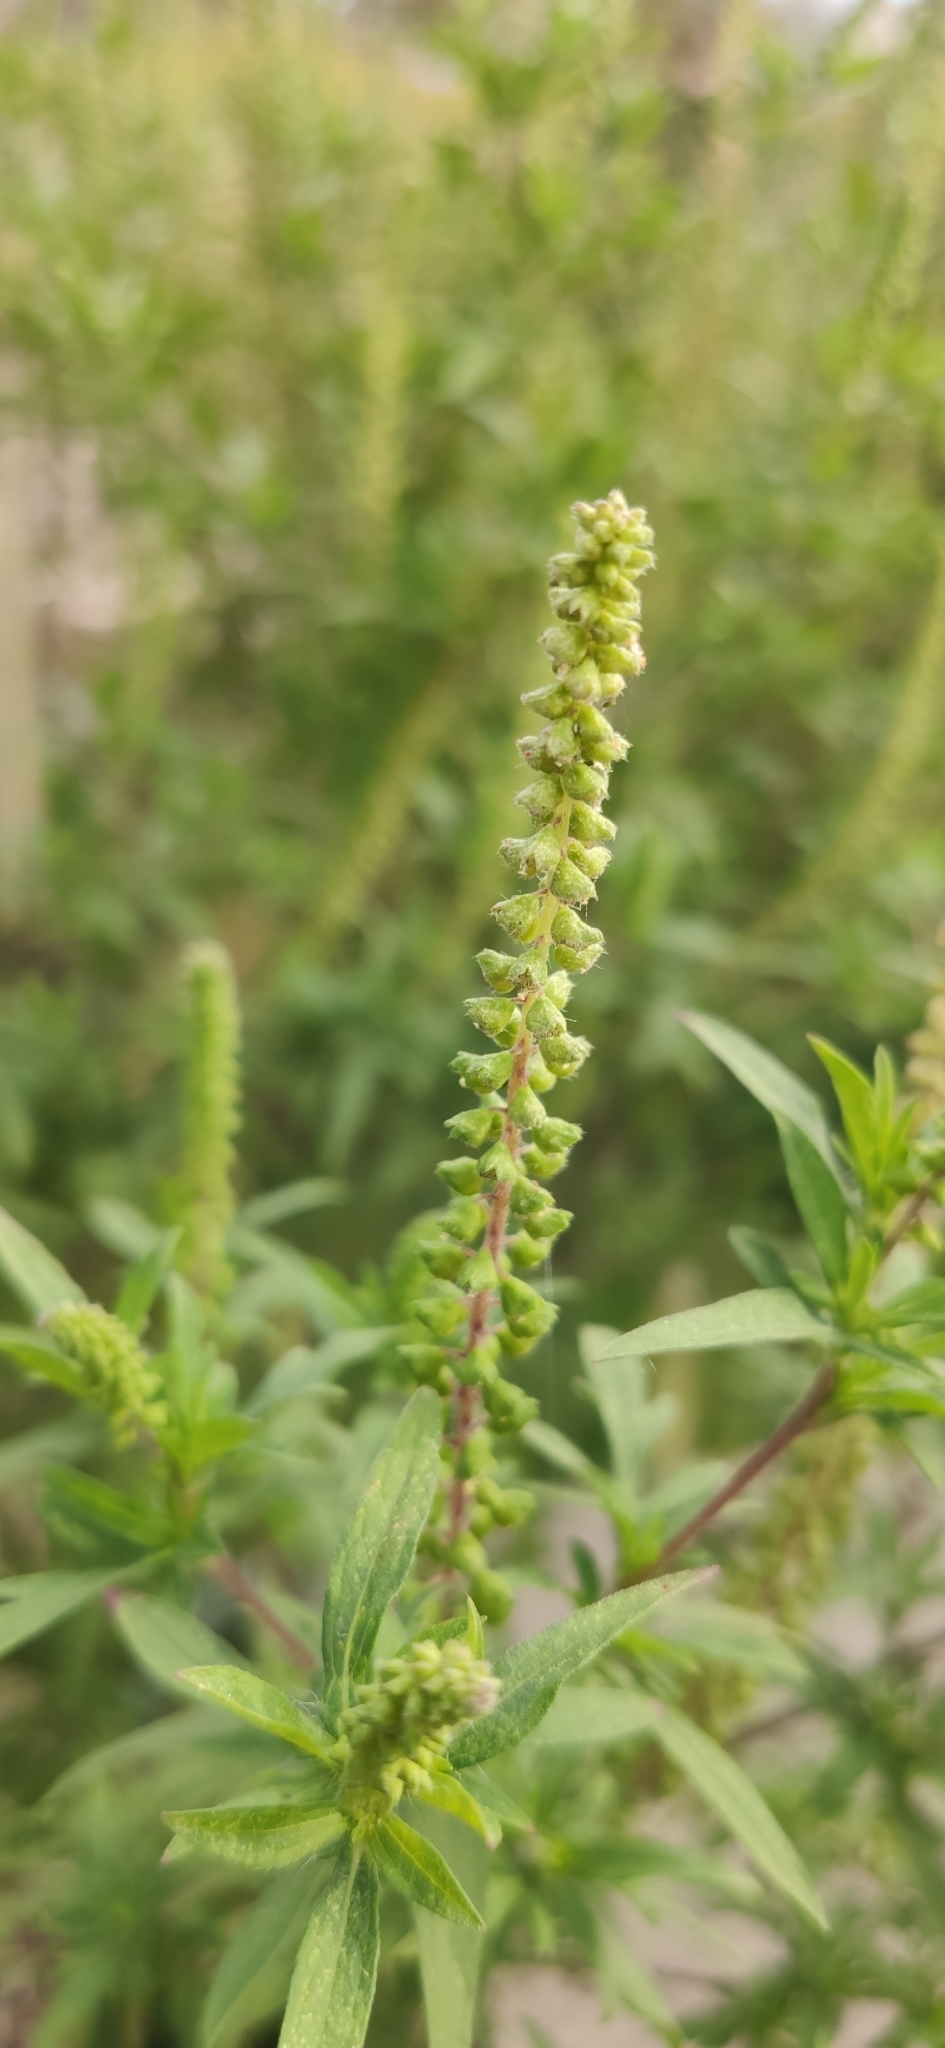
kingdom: Plantae
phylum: Tracheophyta
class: Magnoliopsida
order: Asterales
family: Asteraceae
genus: Ambrosia
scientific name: Ambrosia artemisiifolia
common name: Annual ragweed
